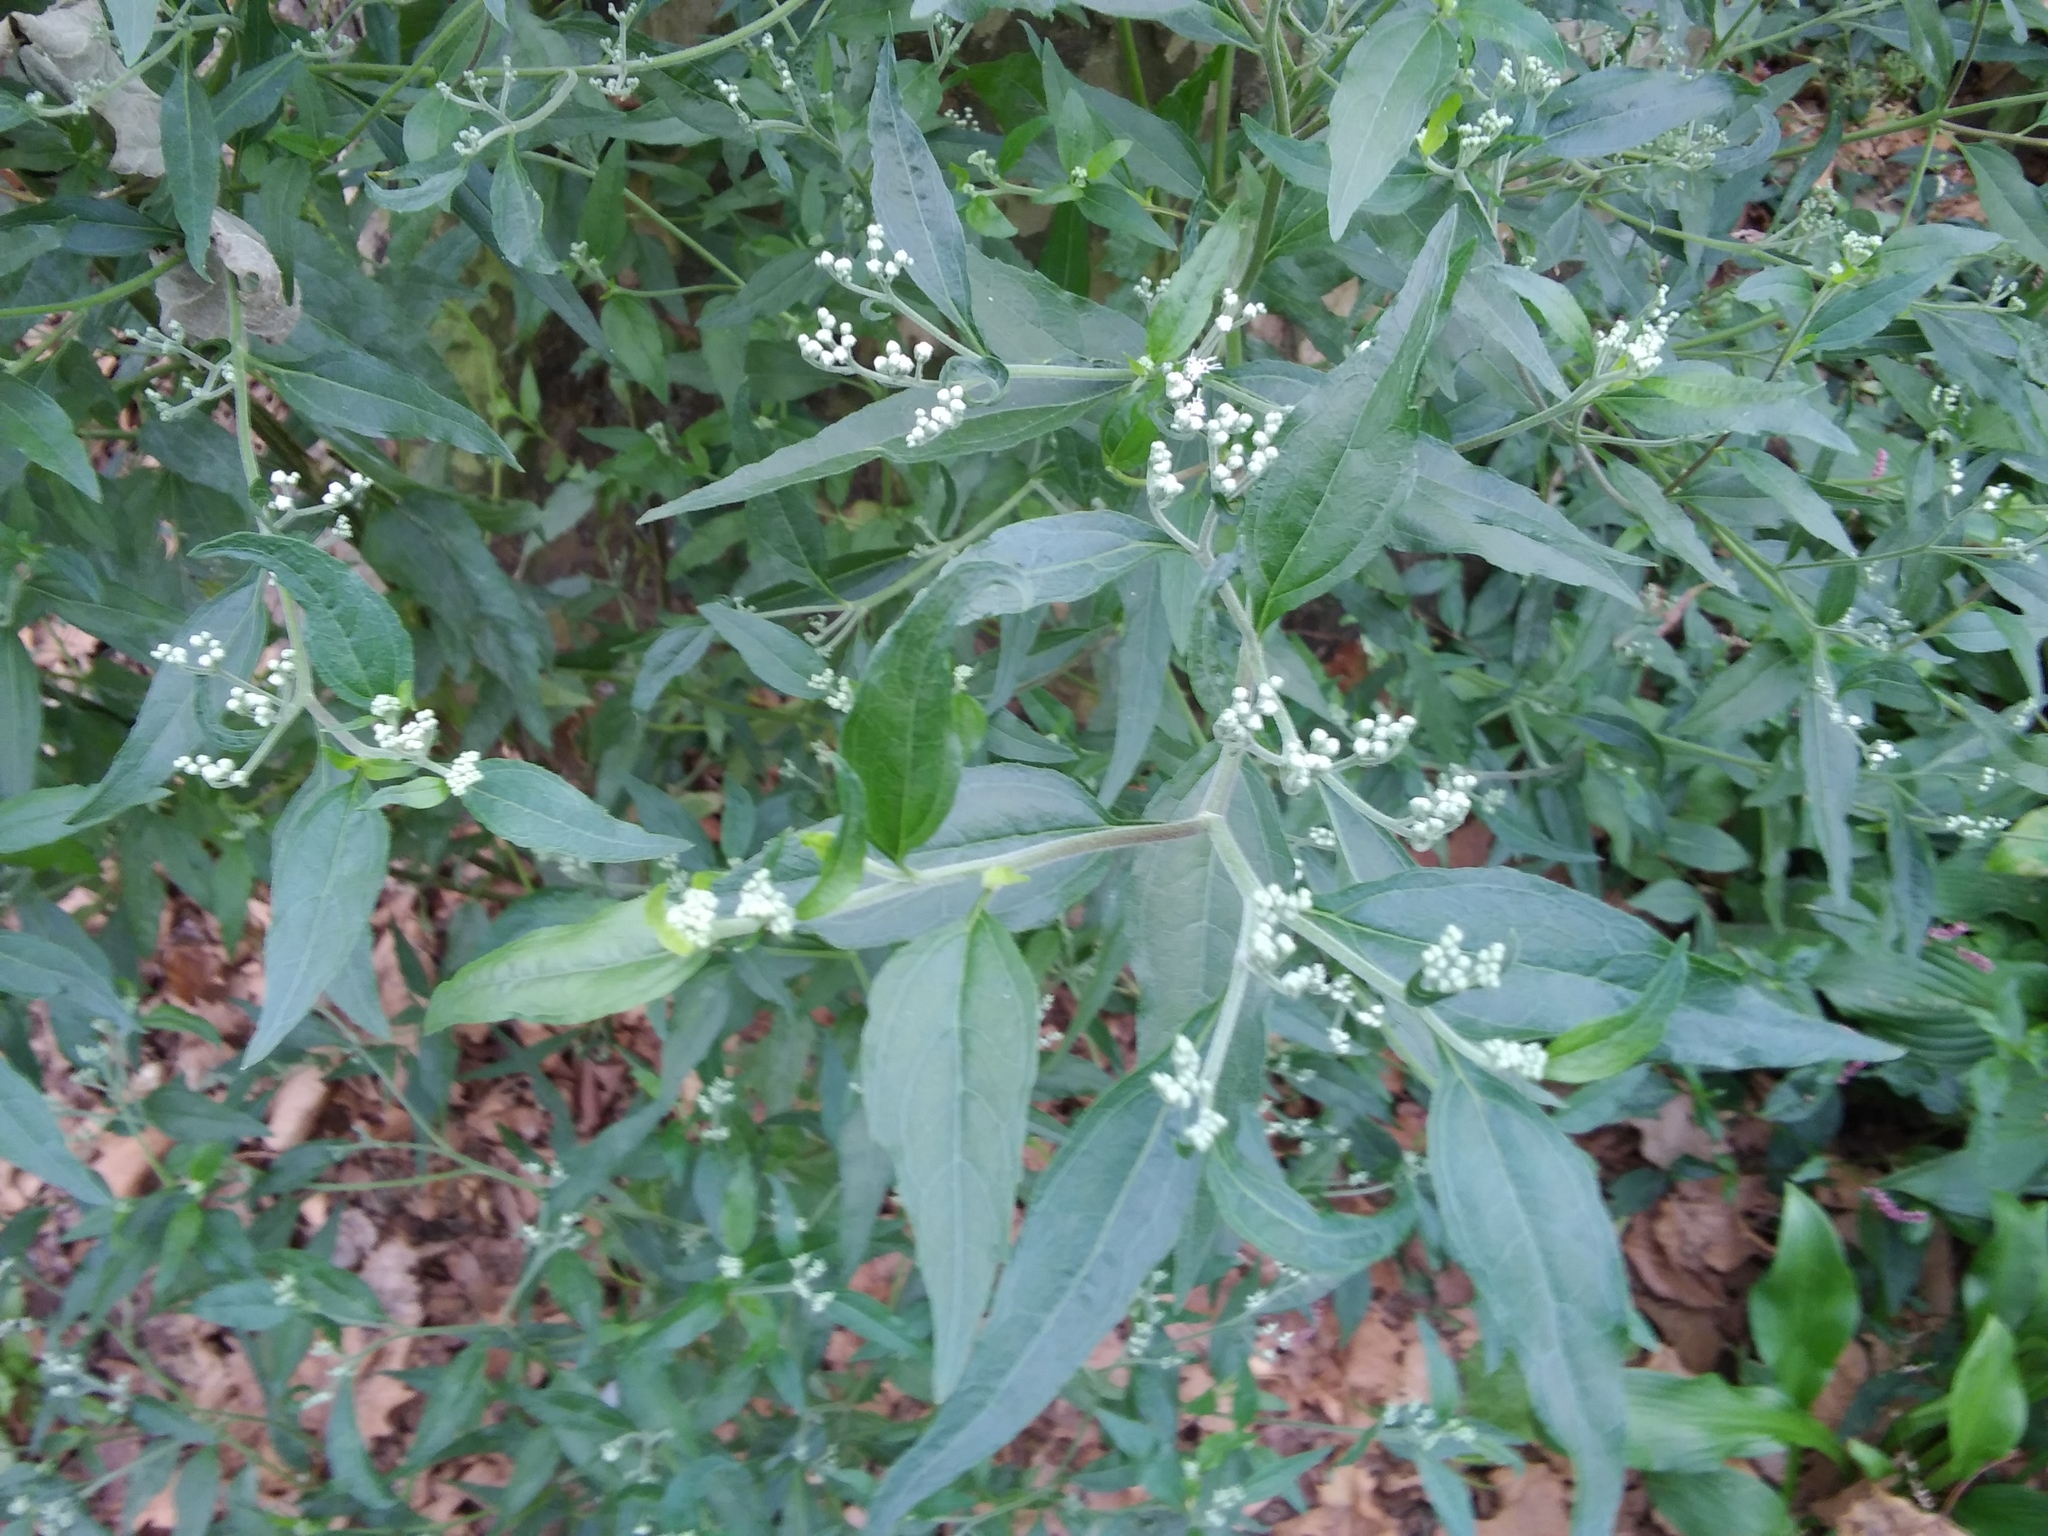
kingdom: Plantae
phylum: Tracheophyta
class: Magnoliopsida
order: Asterales
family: Asteraceae
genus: Eupatorium
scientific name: Eupatorium serotinum
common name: Late boneset
